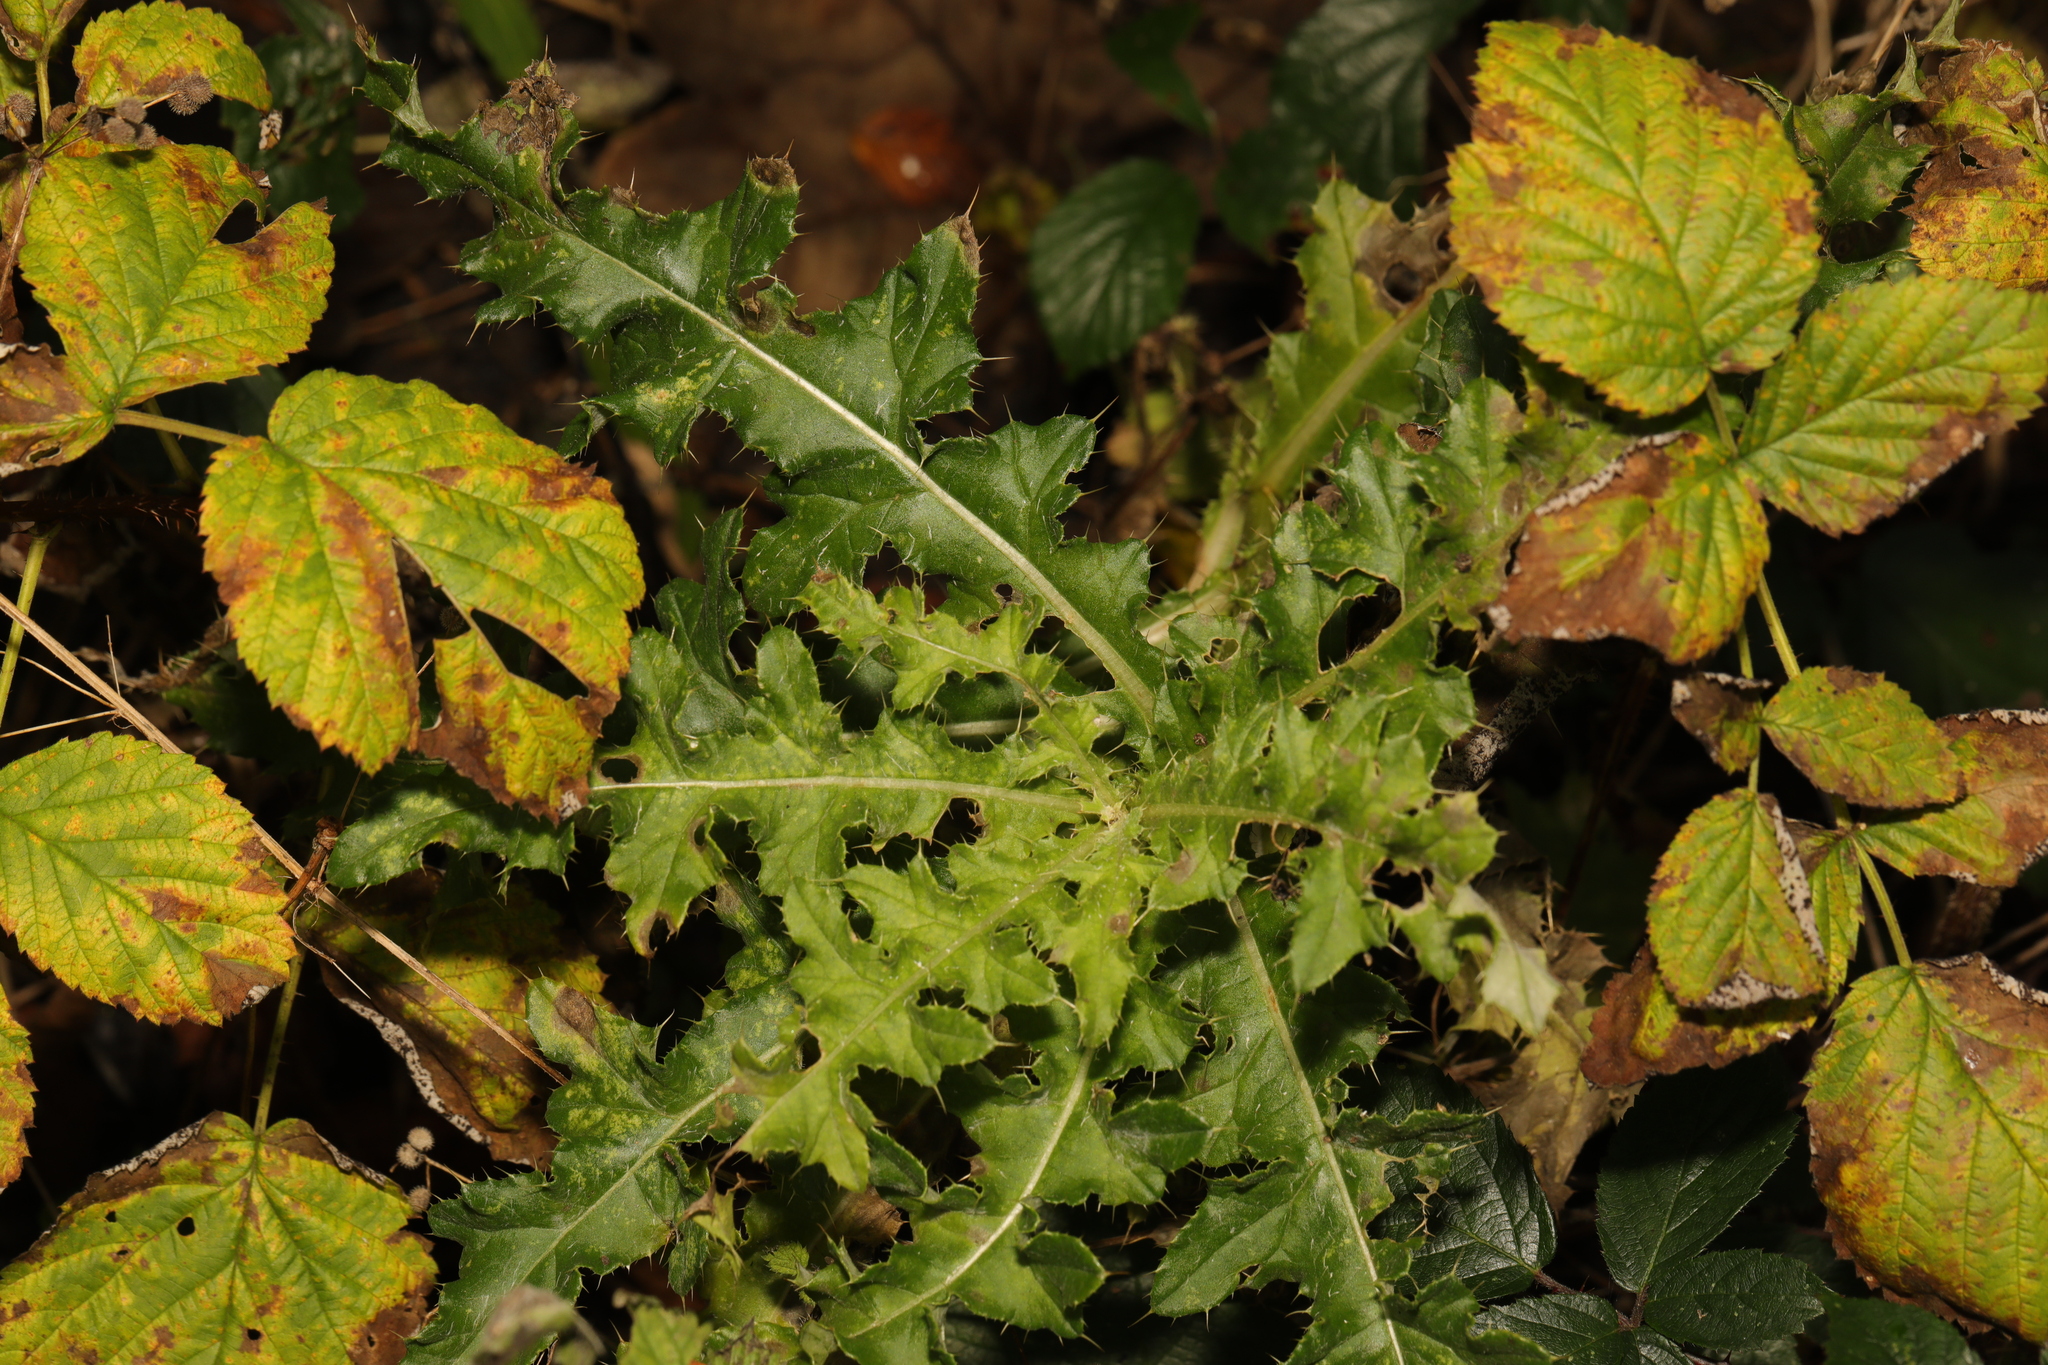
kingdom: Plantae
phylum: Tracheophyta
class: Magnoliopsida
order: Asterales
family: Asteraceae
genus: Cirsium
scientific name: Cirsium arvense
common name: Creeping thistle
